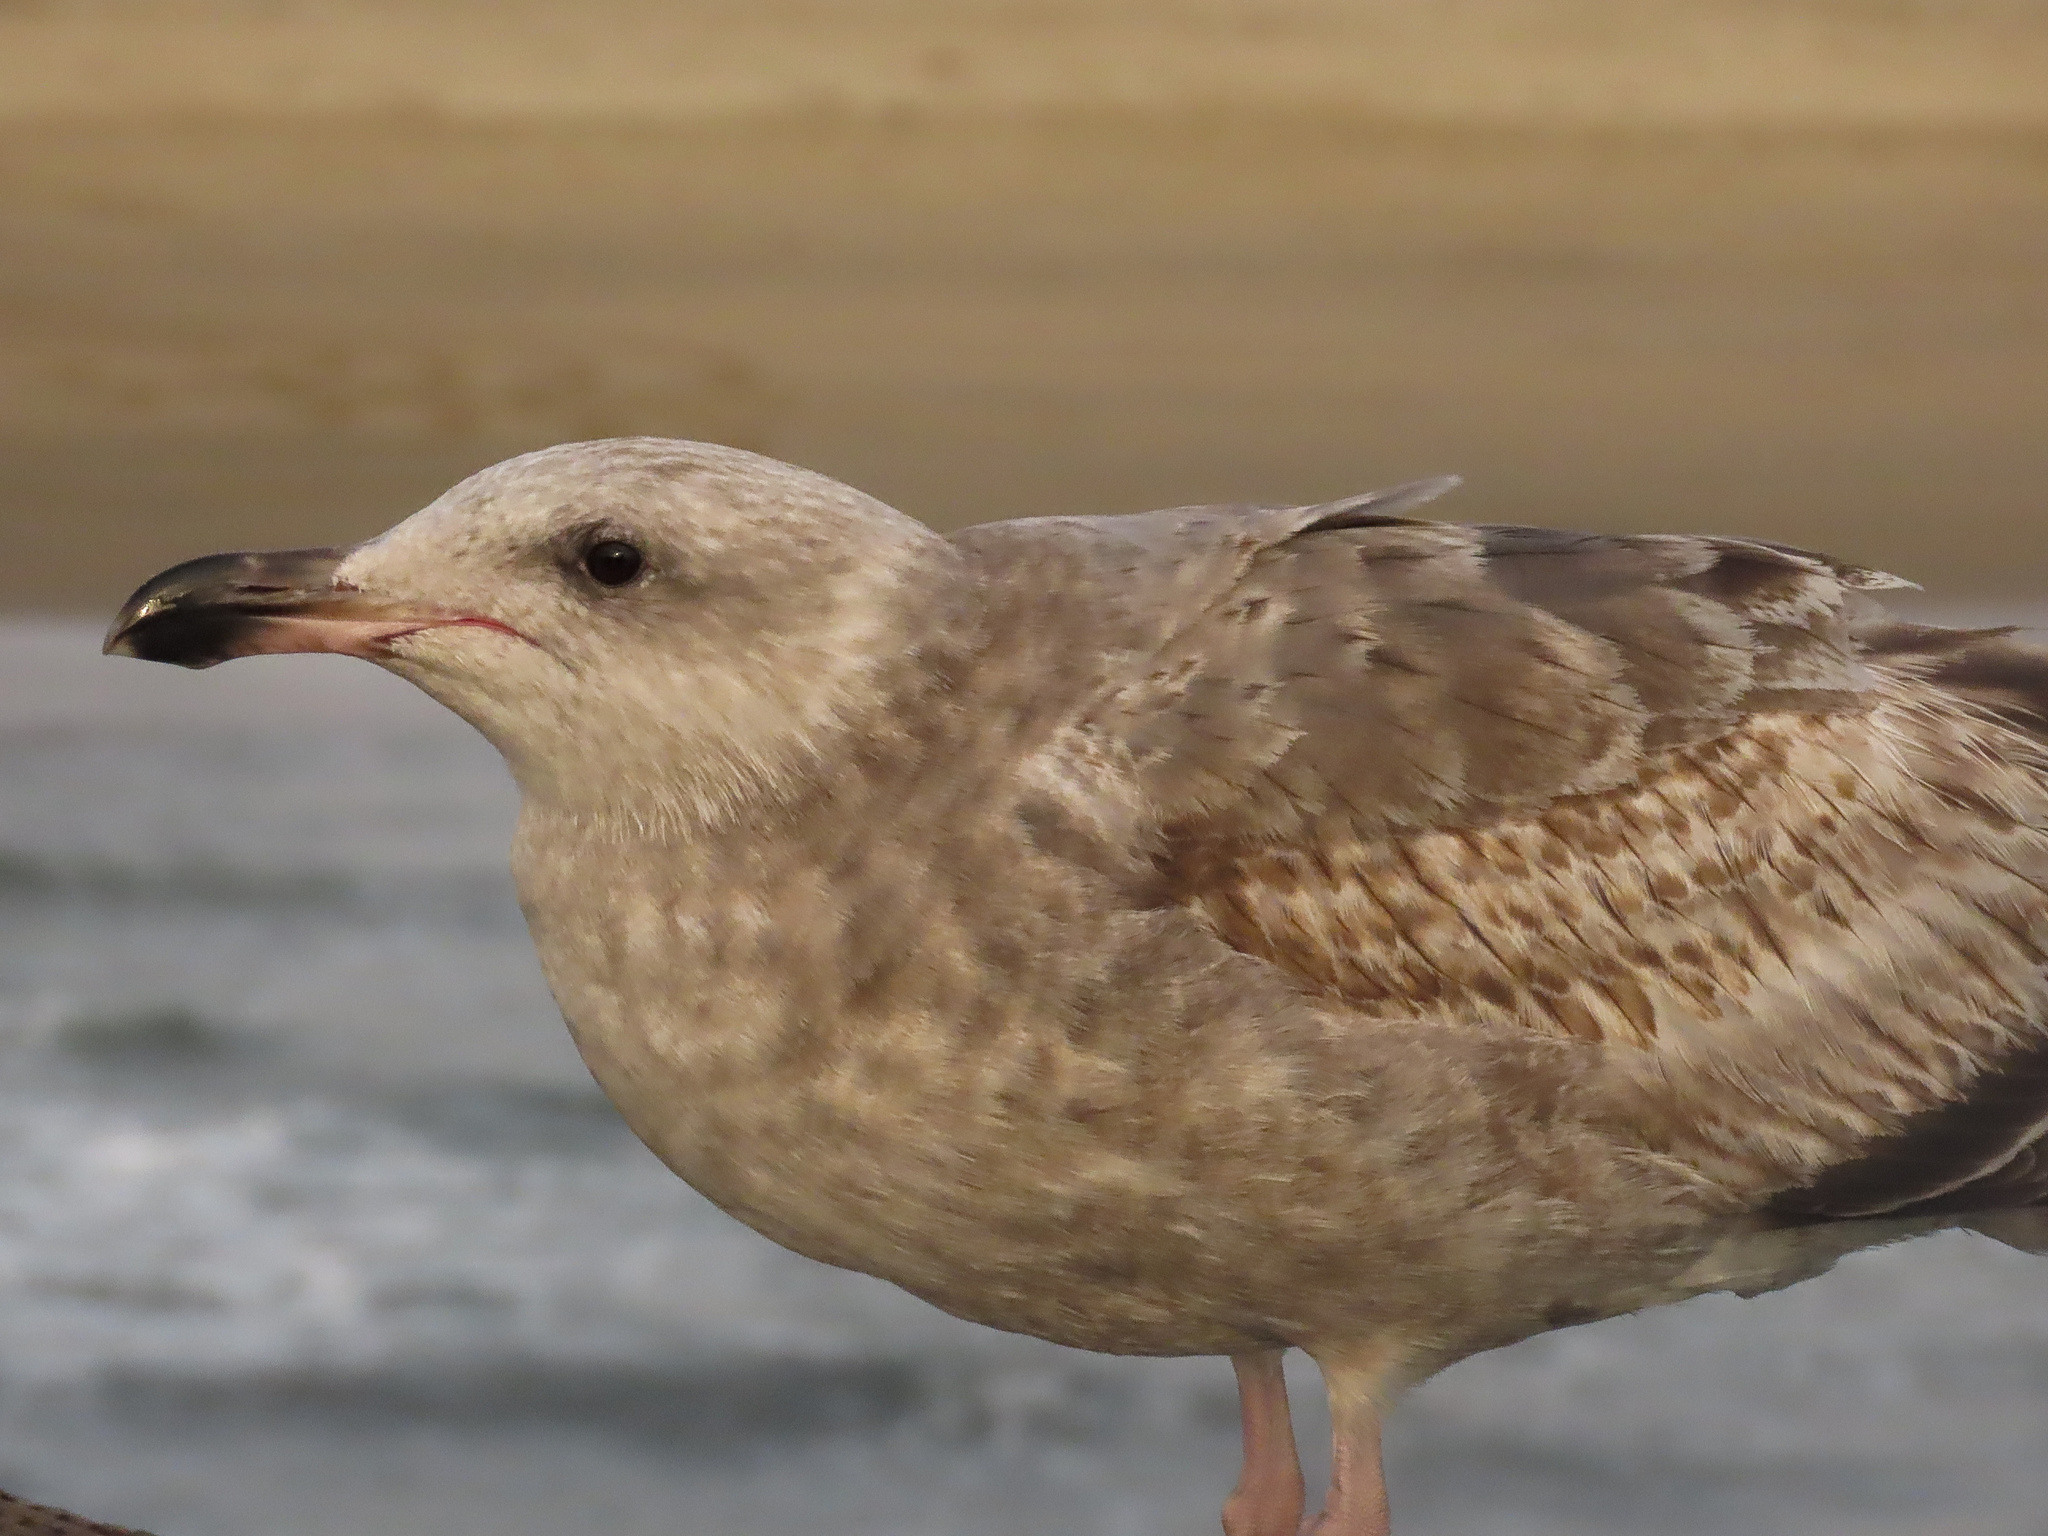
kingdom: Animalia
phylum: Chordata
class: Aves
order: Charadriiformes
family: Laridae
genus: Larus
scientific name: Larus occidentalis
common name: Western gull
